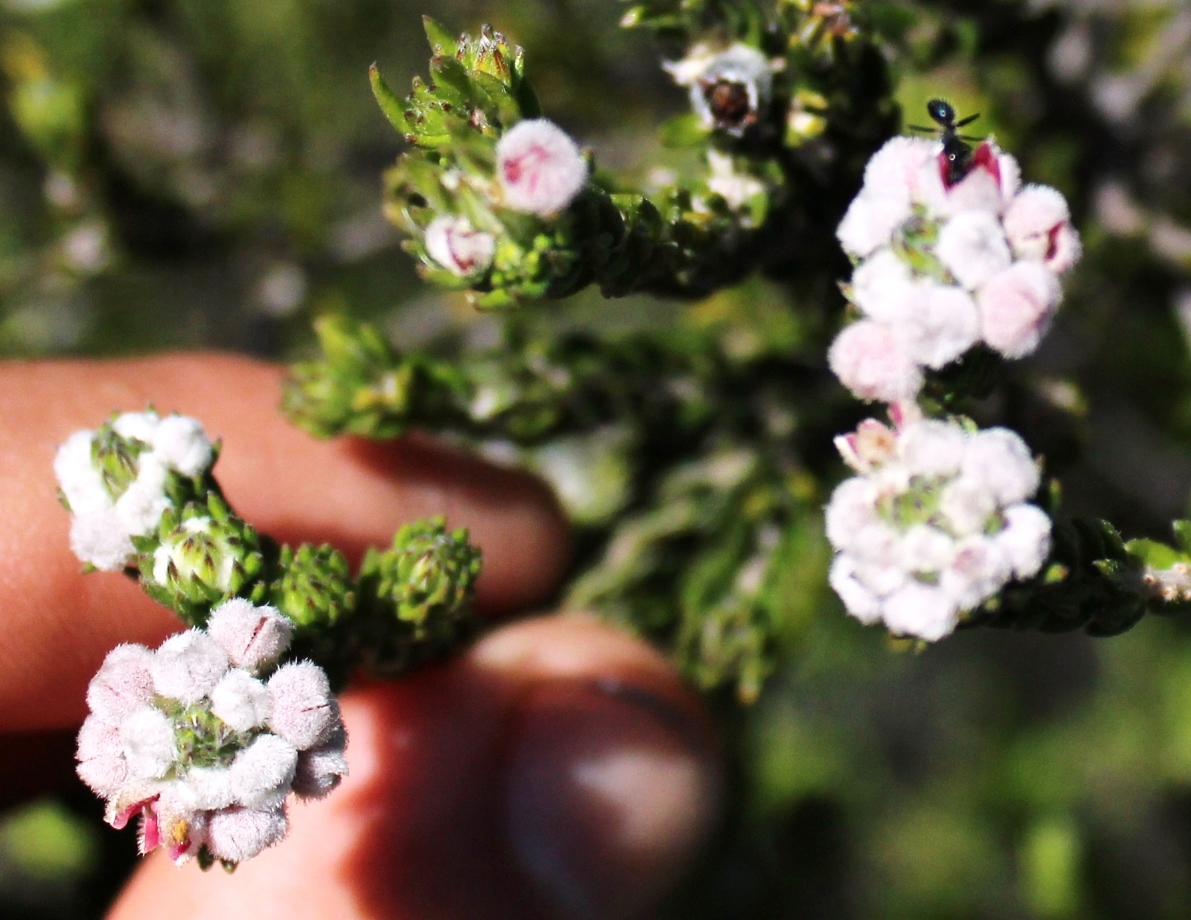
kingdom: Plantae
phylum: Tracheophyta
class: Magnoliopsida
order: Rosales
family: Rhamnaceae
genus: Phylica
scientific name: Phylica purpurea
